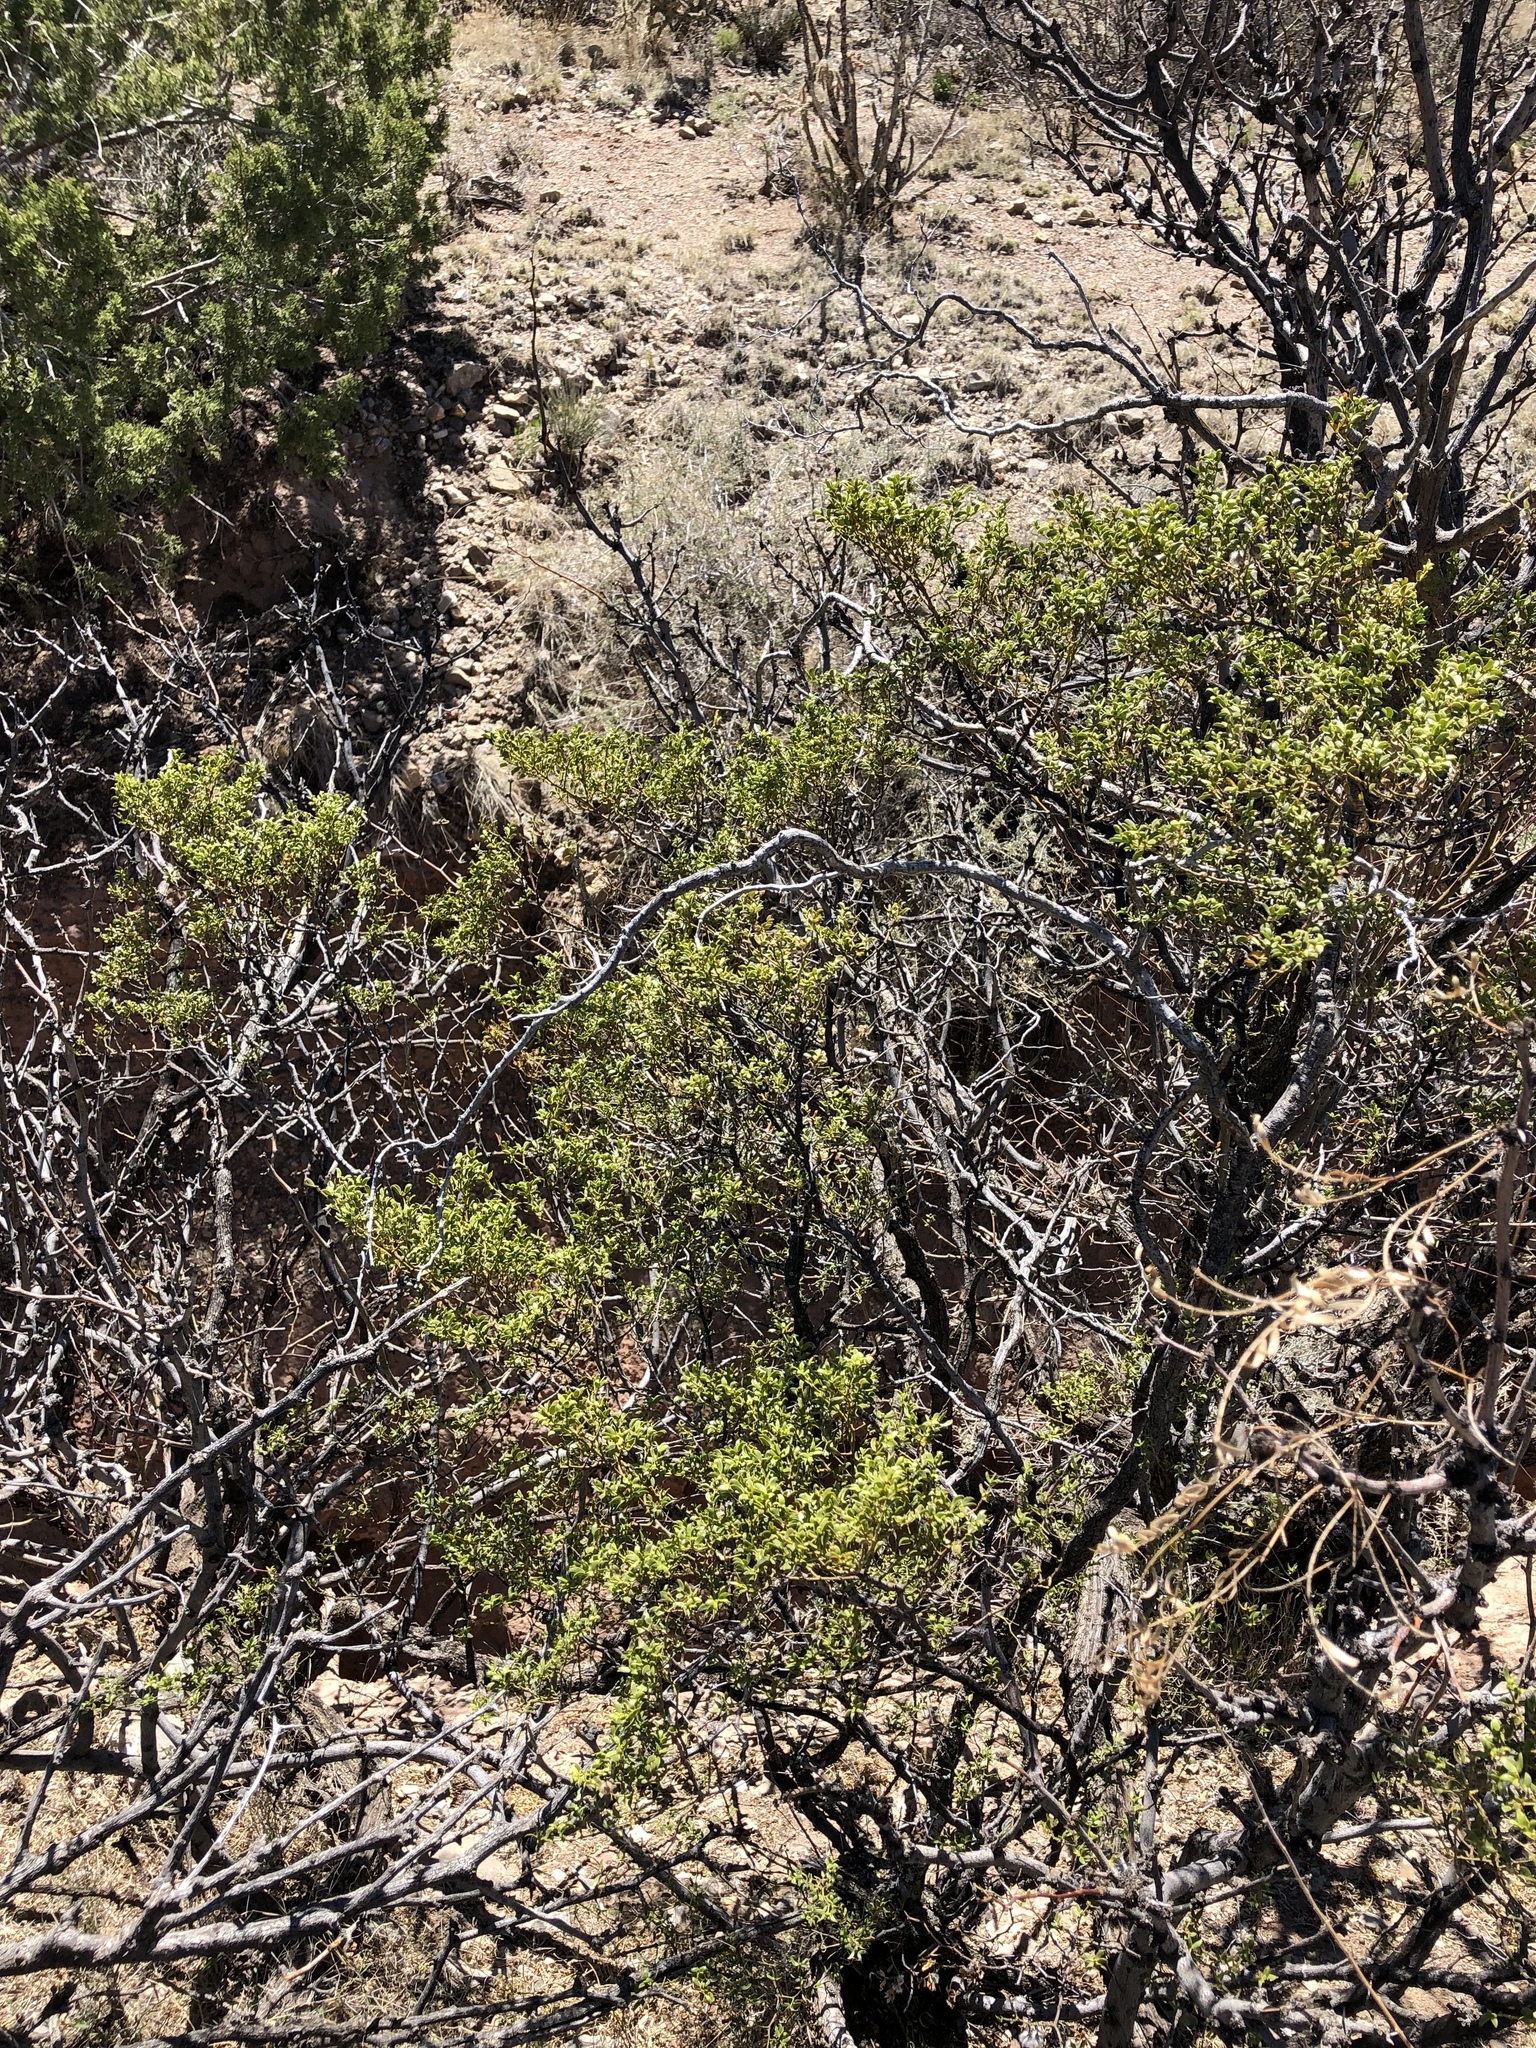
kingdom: Plantae
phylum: Tracheophyta
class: Magnoliopsida
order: Zygophyllales
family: Zygophyllaceae
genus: Larrea
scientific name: Larrea tridentata
